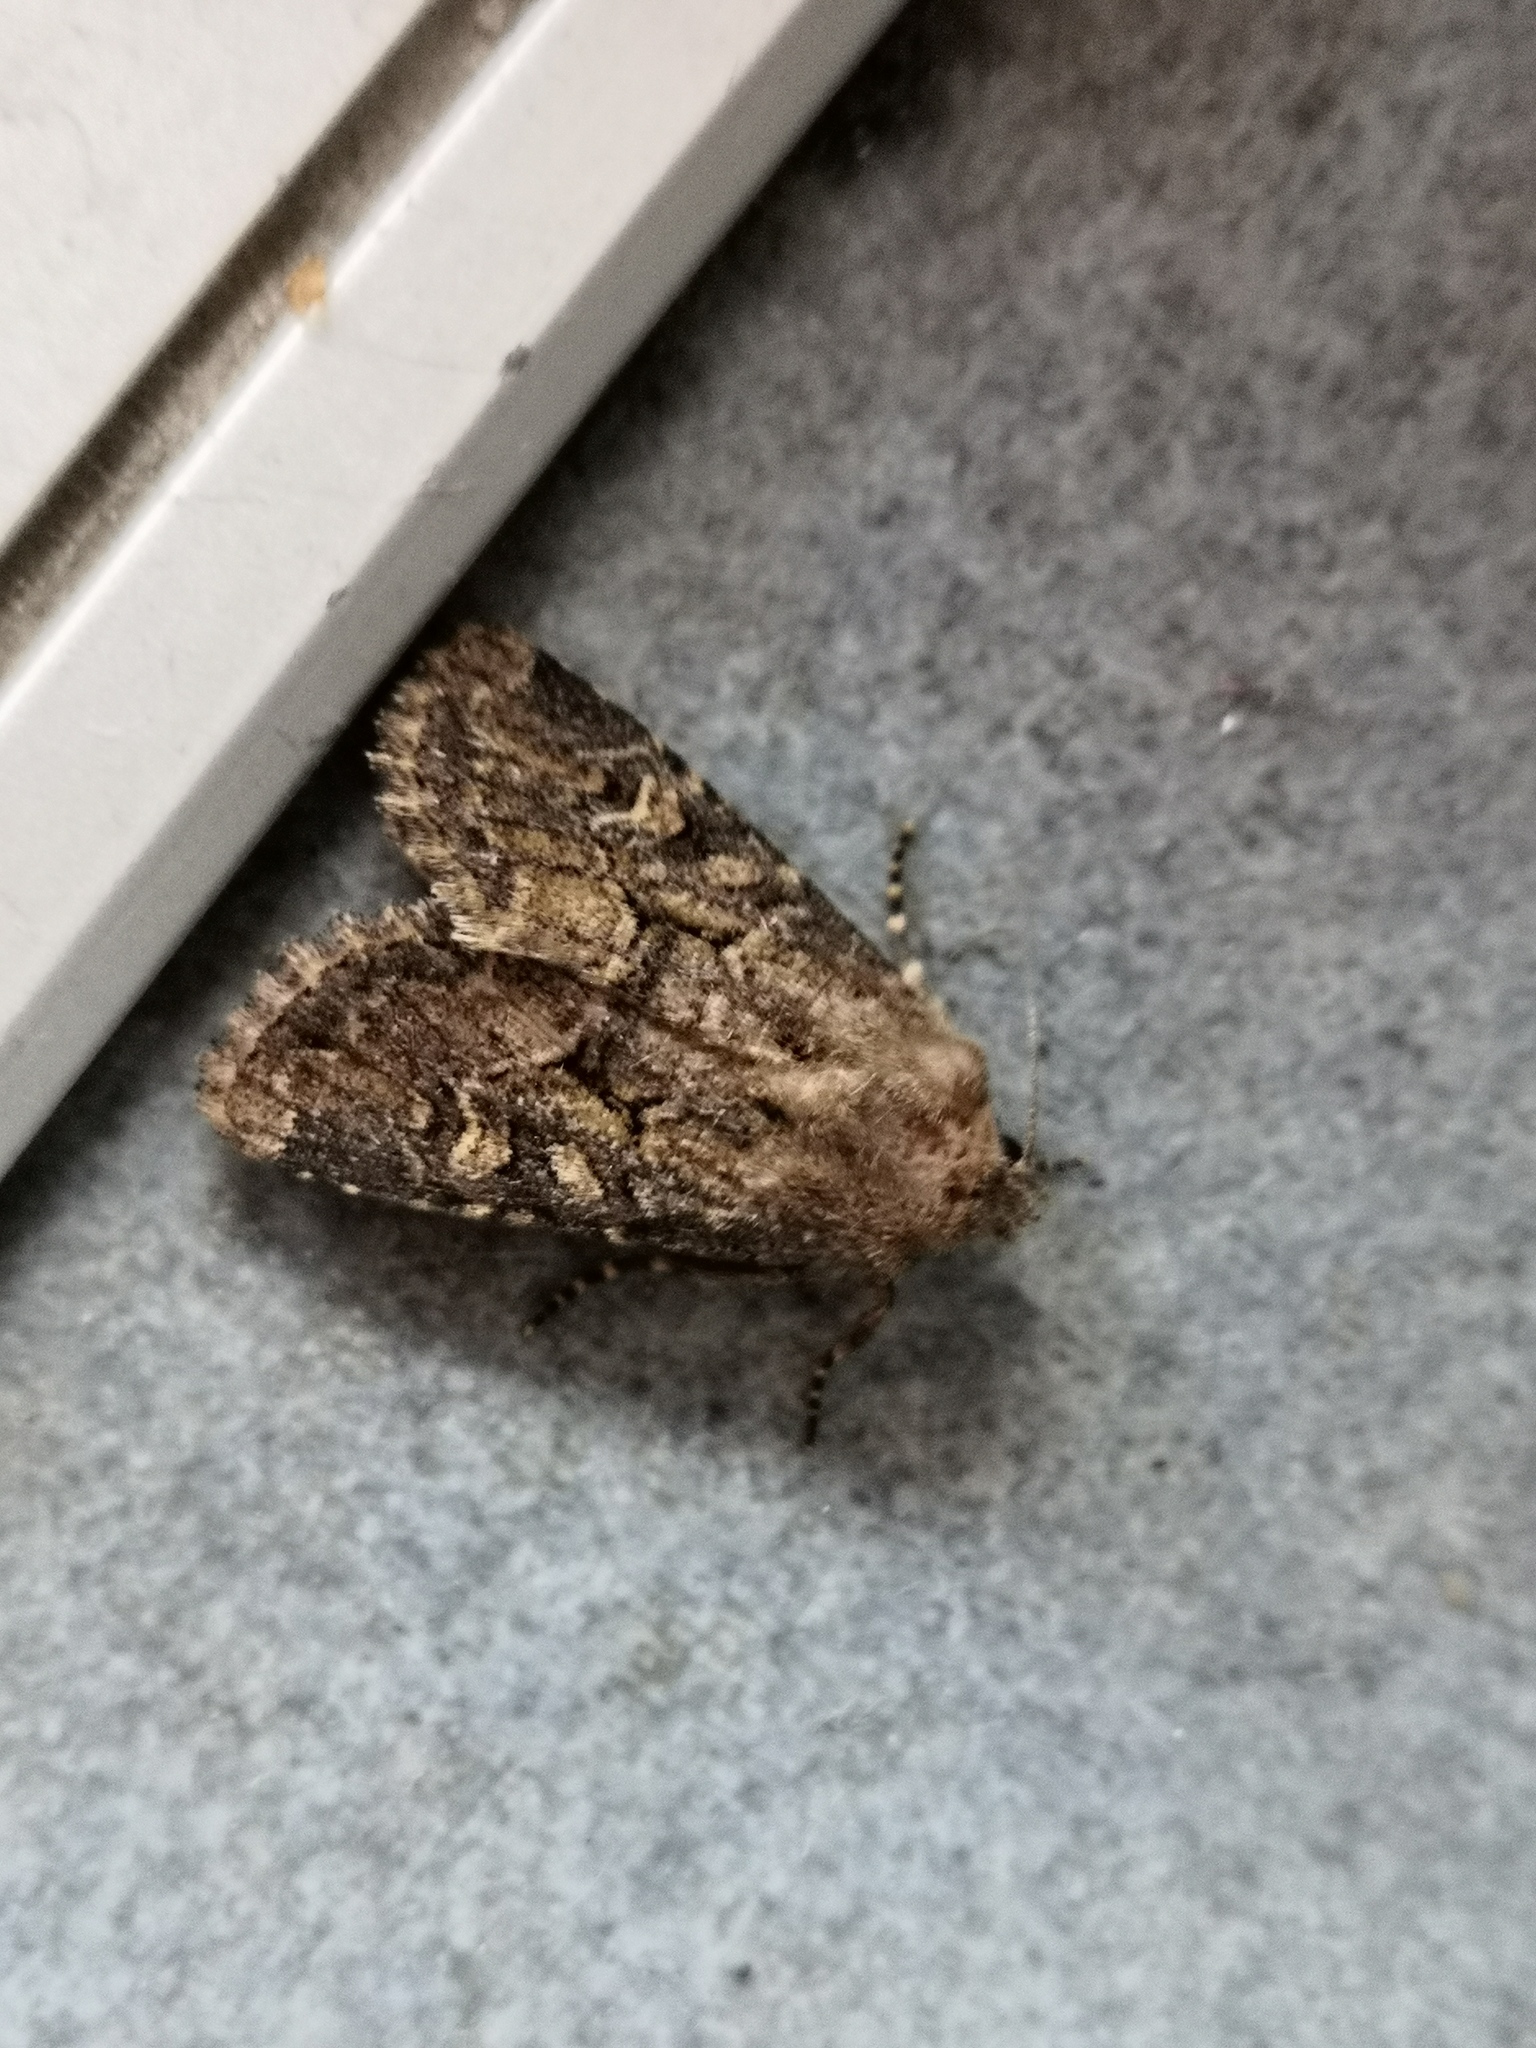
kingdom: Animalia
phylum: Arthropoda
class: Insecta
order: Lepidoptera
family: Noctuidae
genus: Luperina
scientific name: Luperina testacea
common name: Flounced rustic
